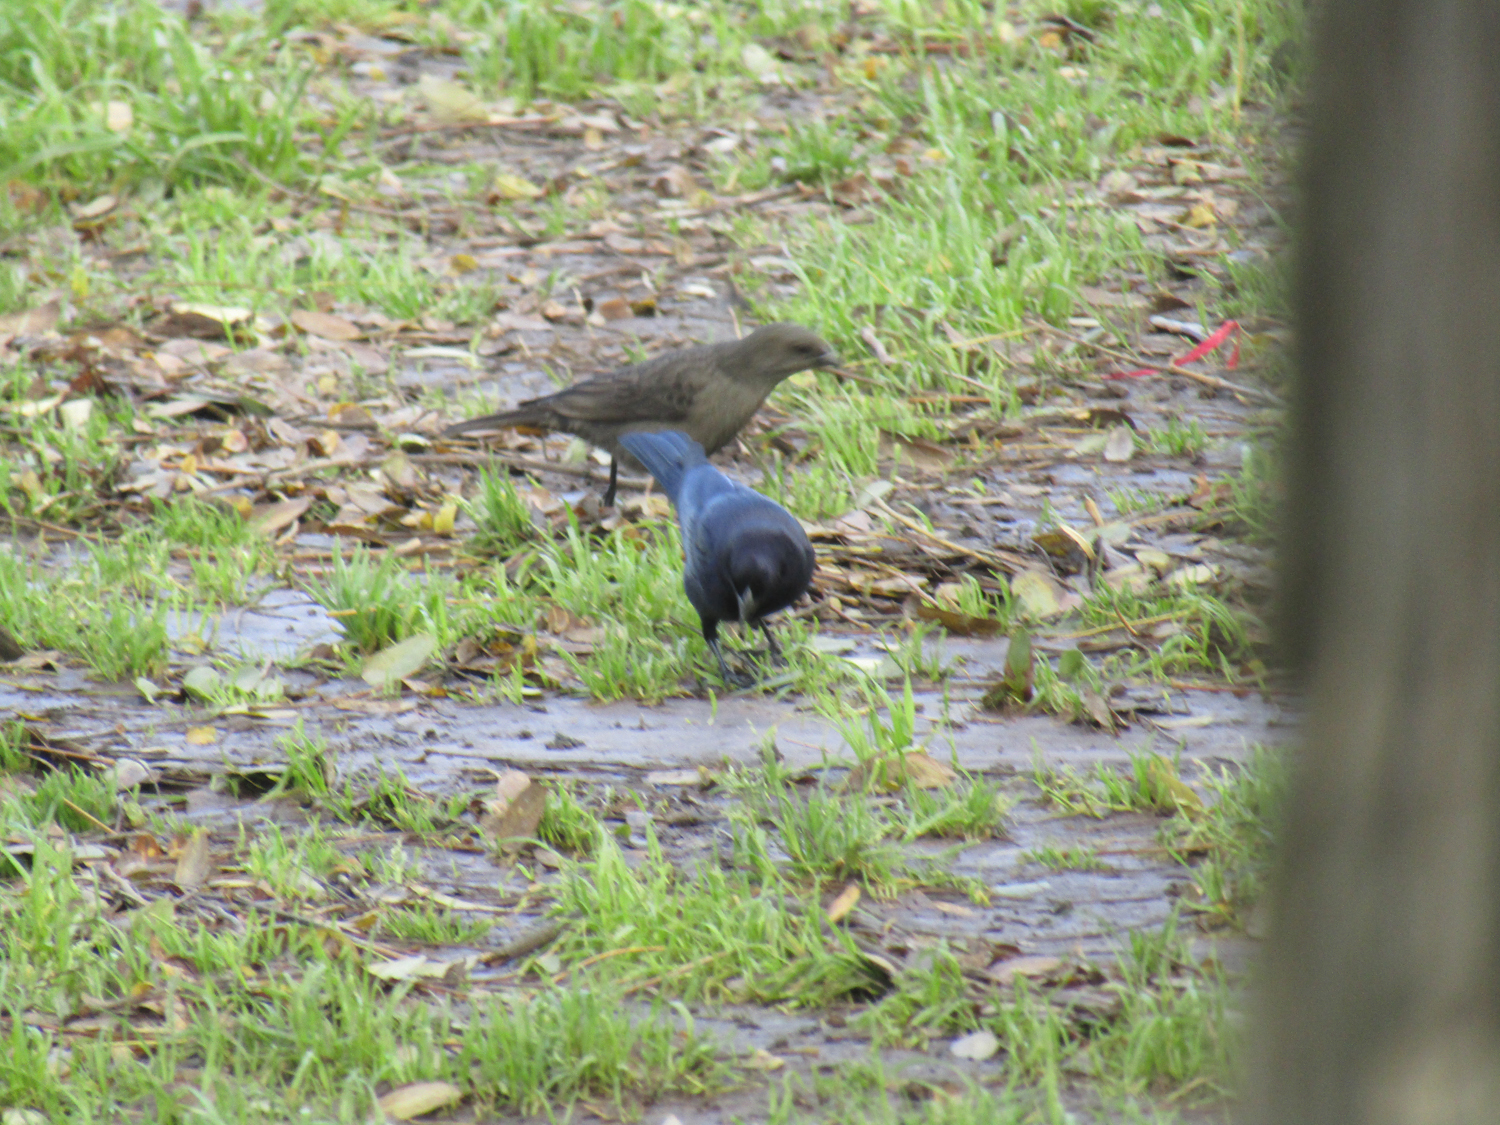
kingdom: Animalia
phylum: Chordata
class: Aves
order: Passeriformes
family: Icteridae
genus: Molothrus
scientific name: Molothrus bonariensis
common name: Shiny cowbird
